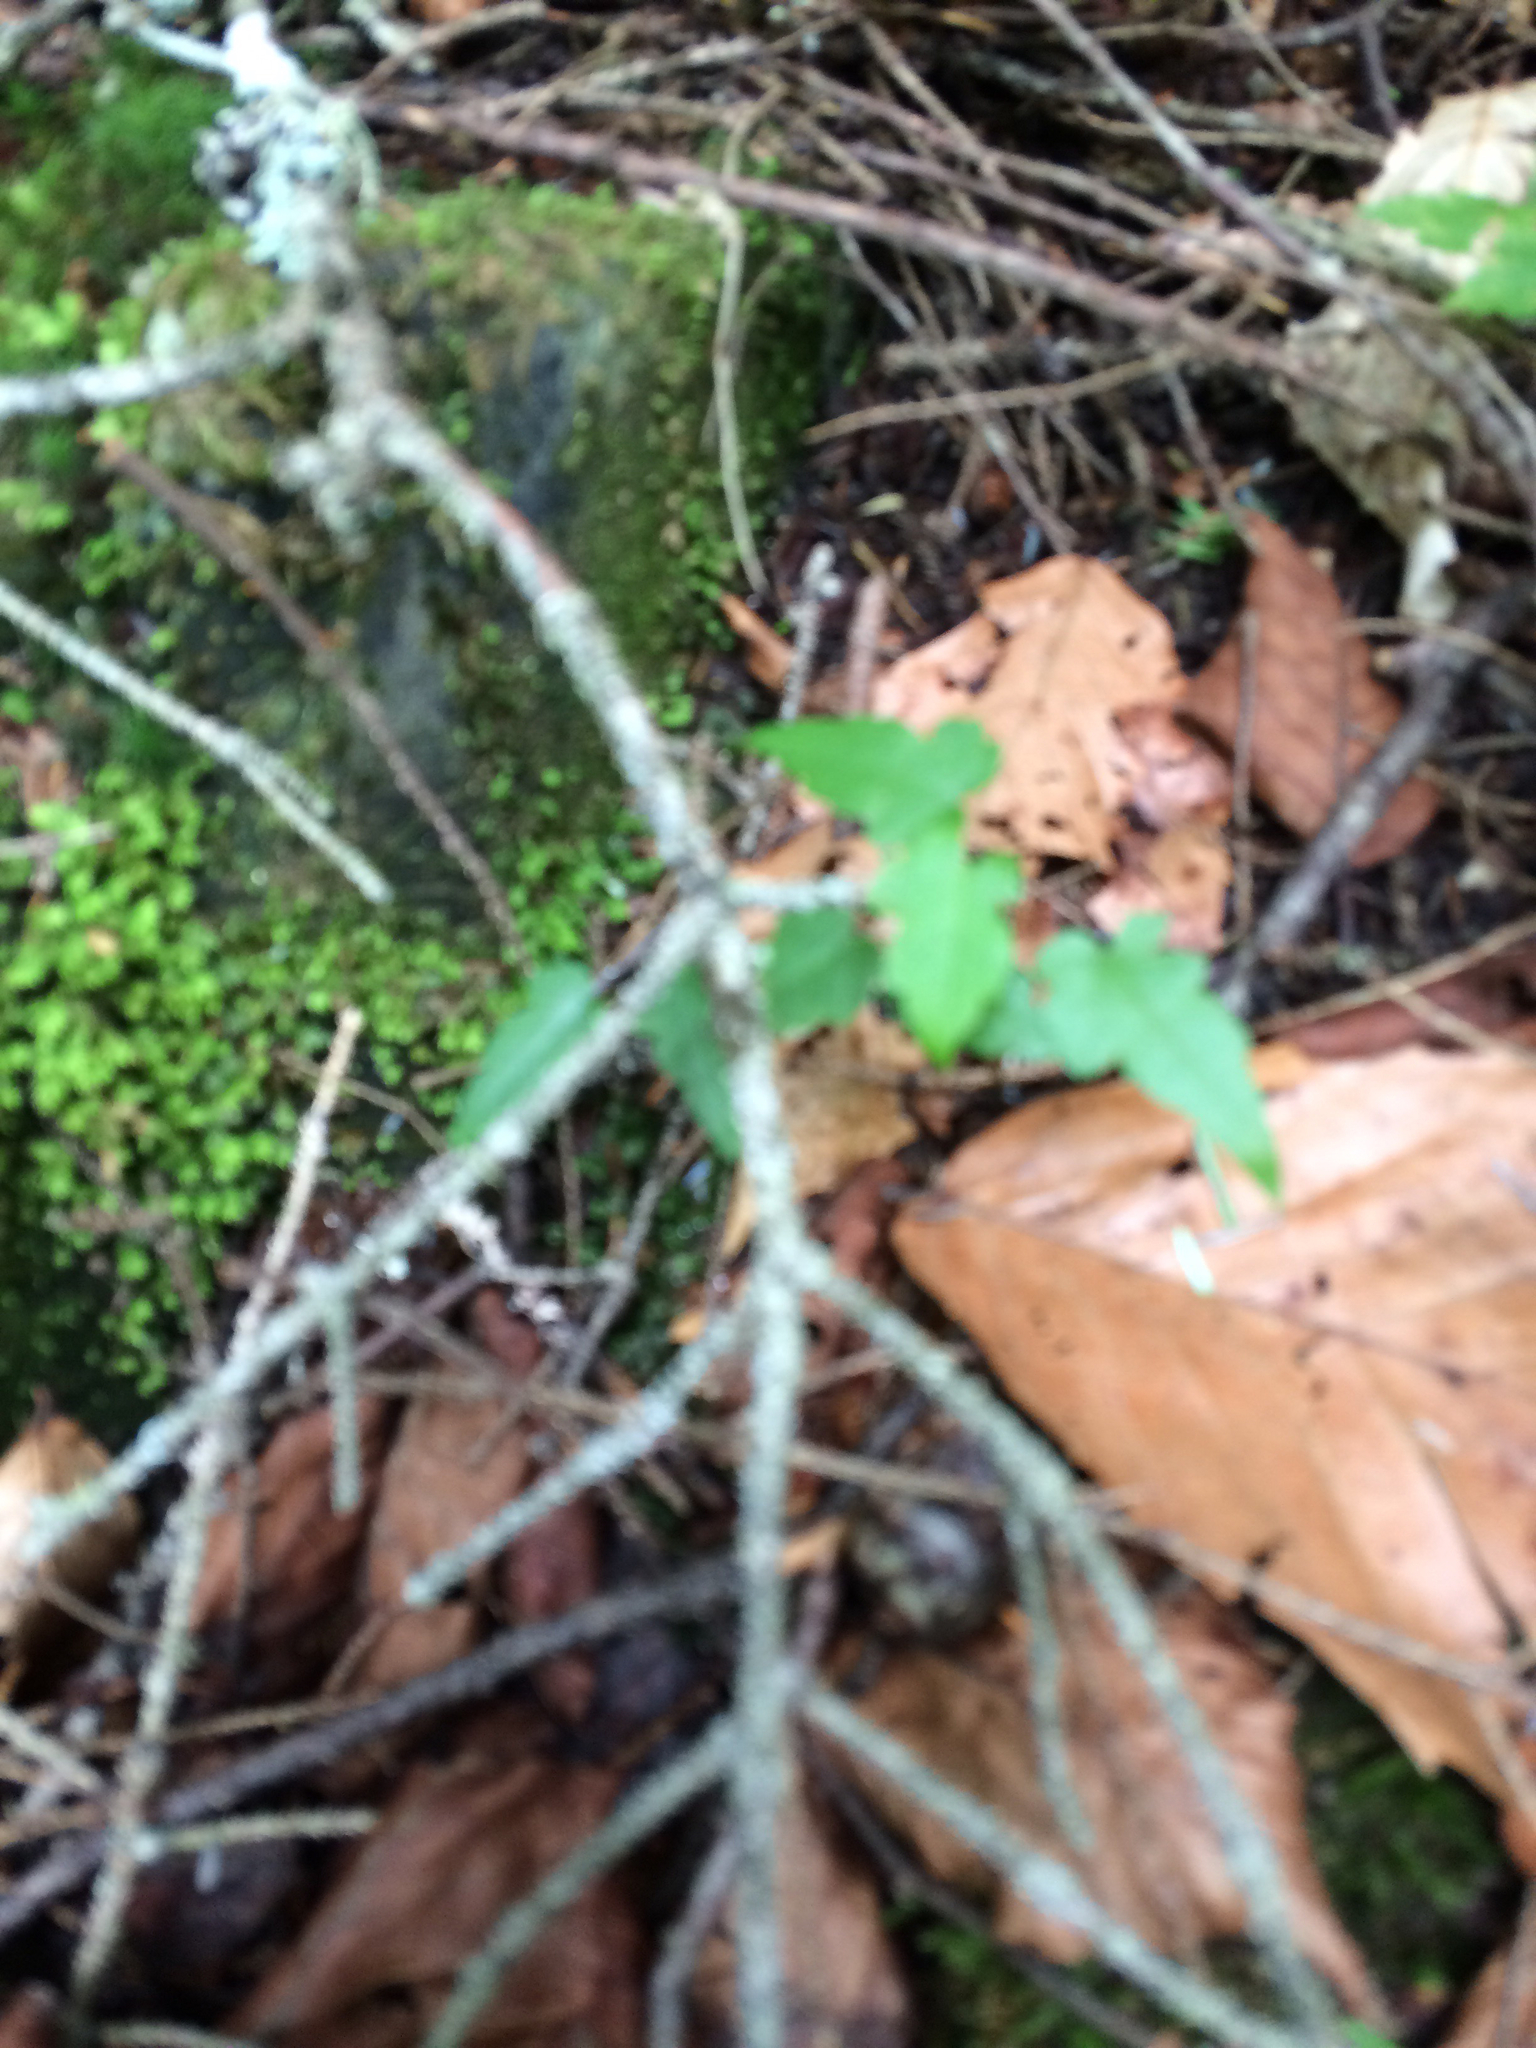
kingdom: Plantae
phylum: Tracheophyta
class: Magnoliopsida
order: Sapindales
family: Sapindaceae
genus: Acer
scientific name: Acer rubrum
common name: Red maple
